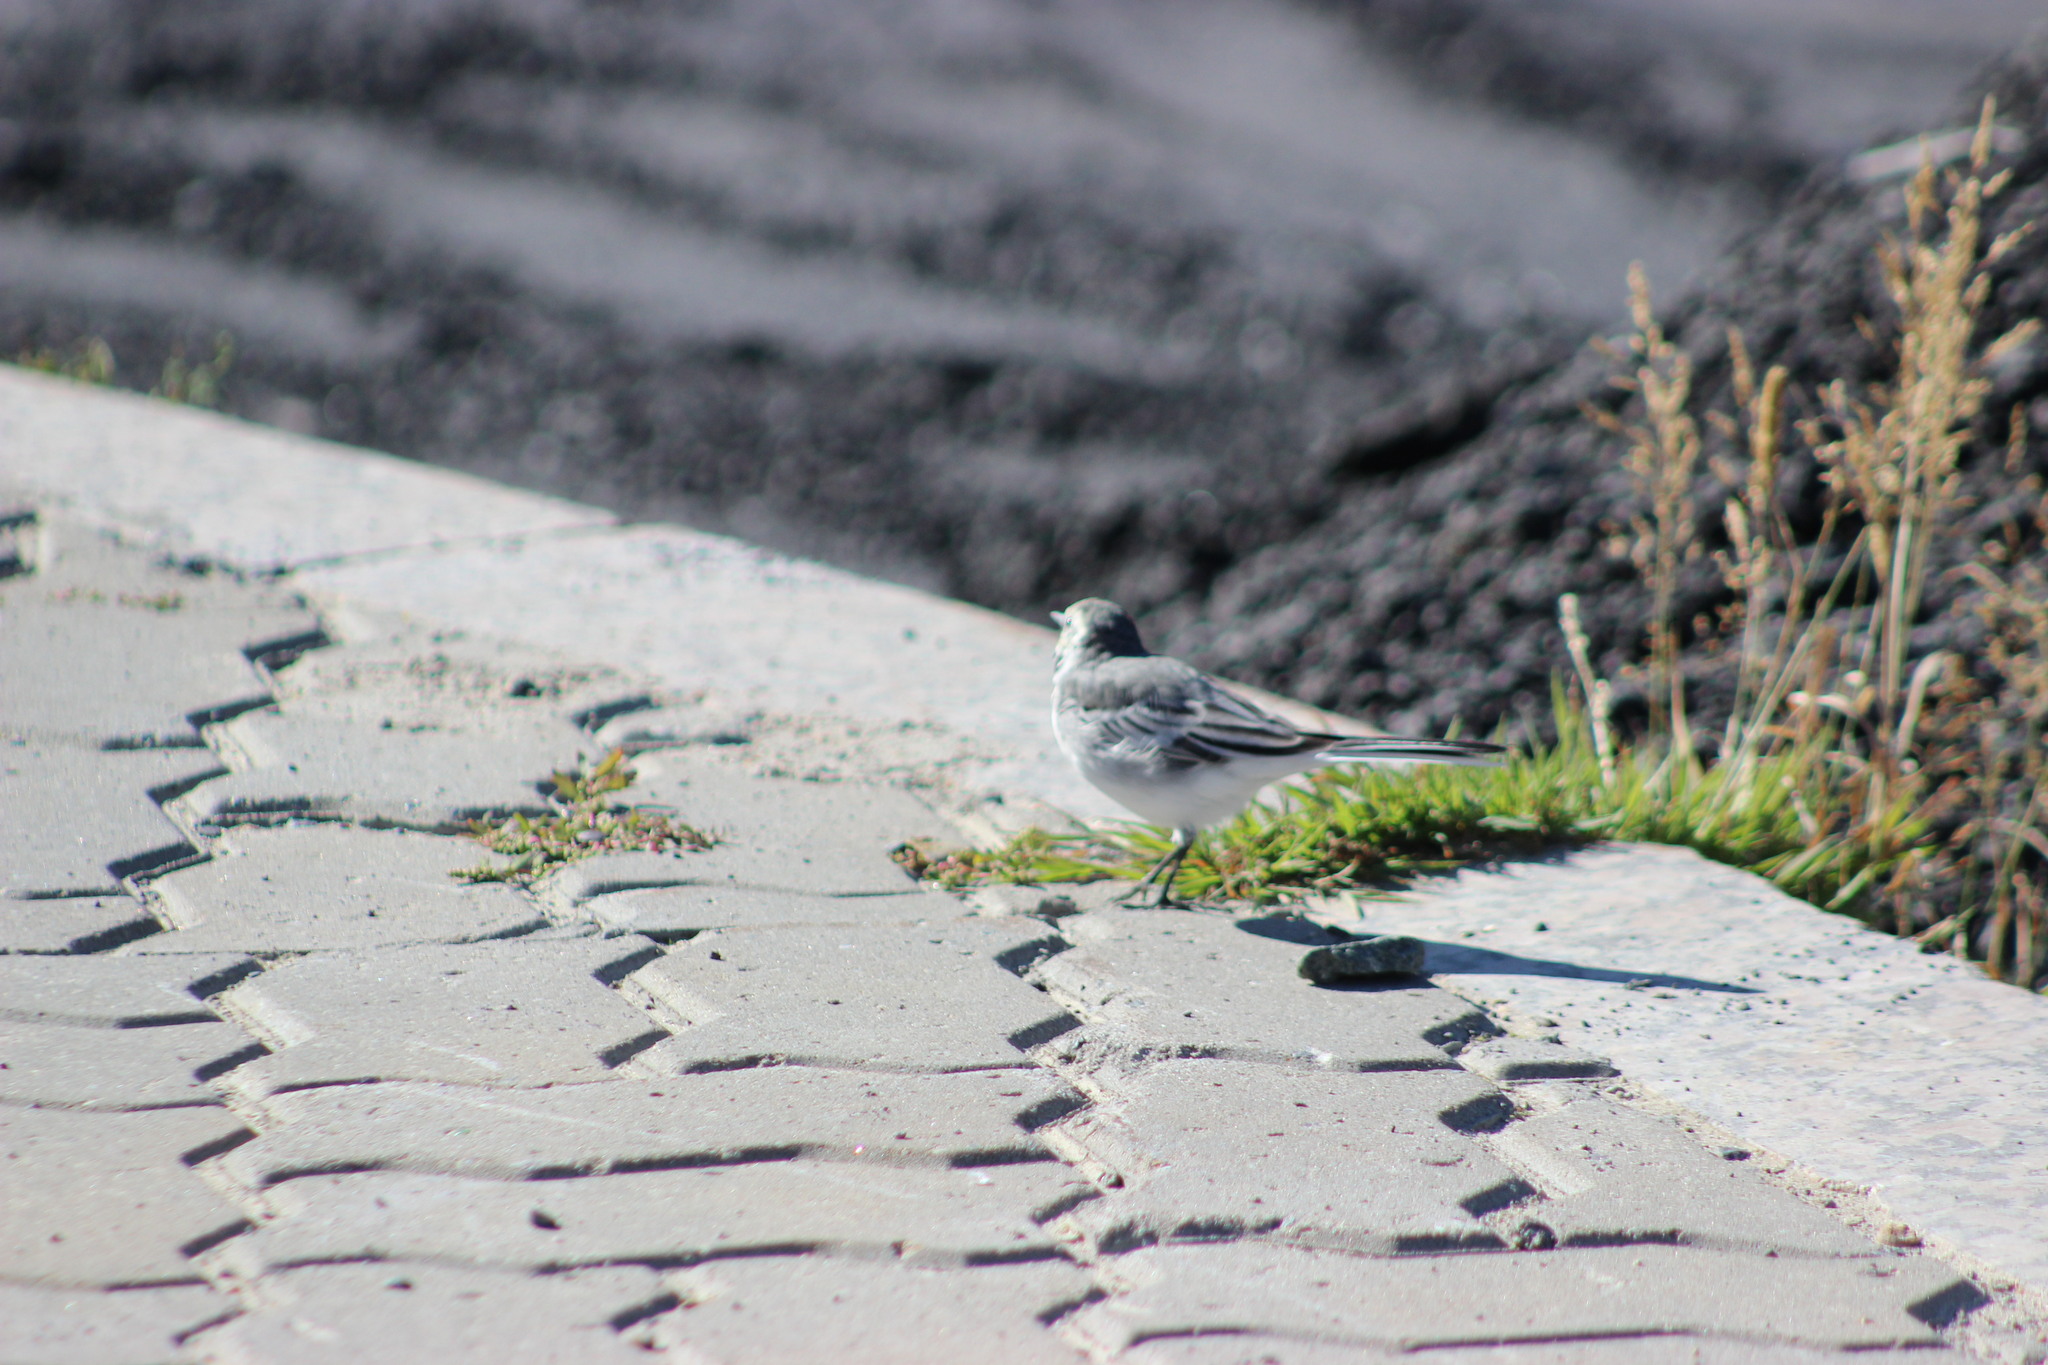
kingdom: Animalia
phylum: Chordata
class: Aves
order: Passeriformes
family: Motacillidae
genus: Motacilla
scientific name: Motacilla alba
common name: White wagtail
